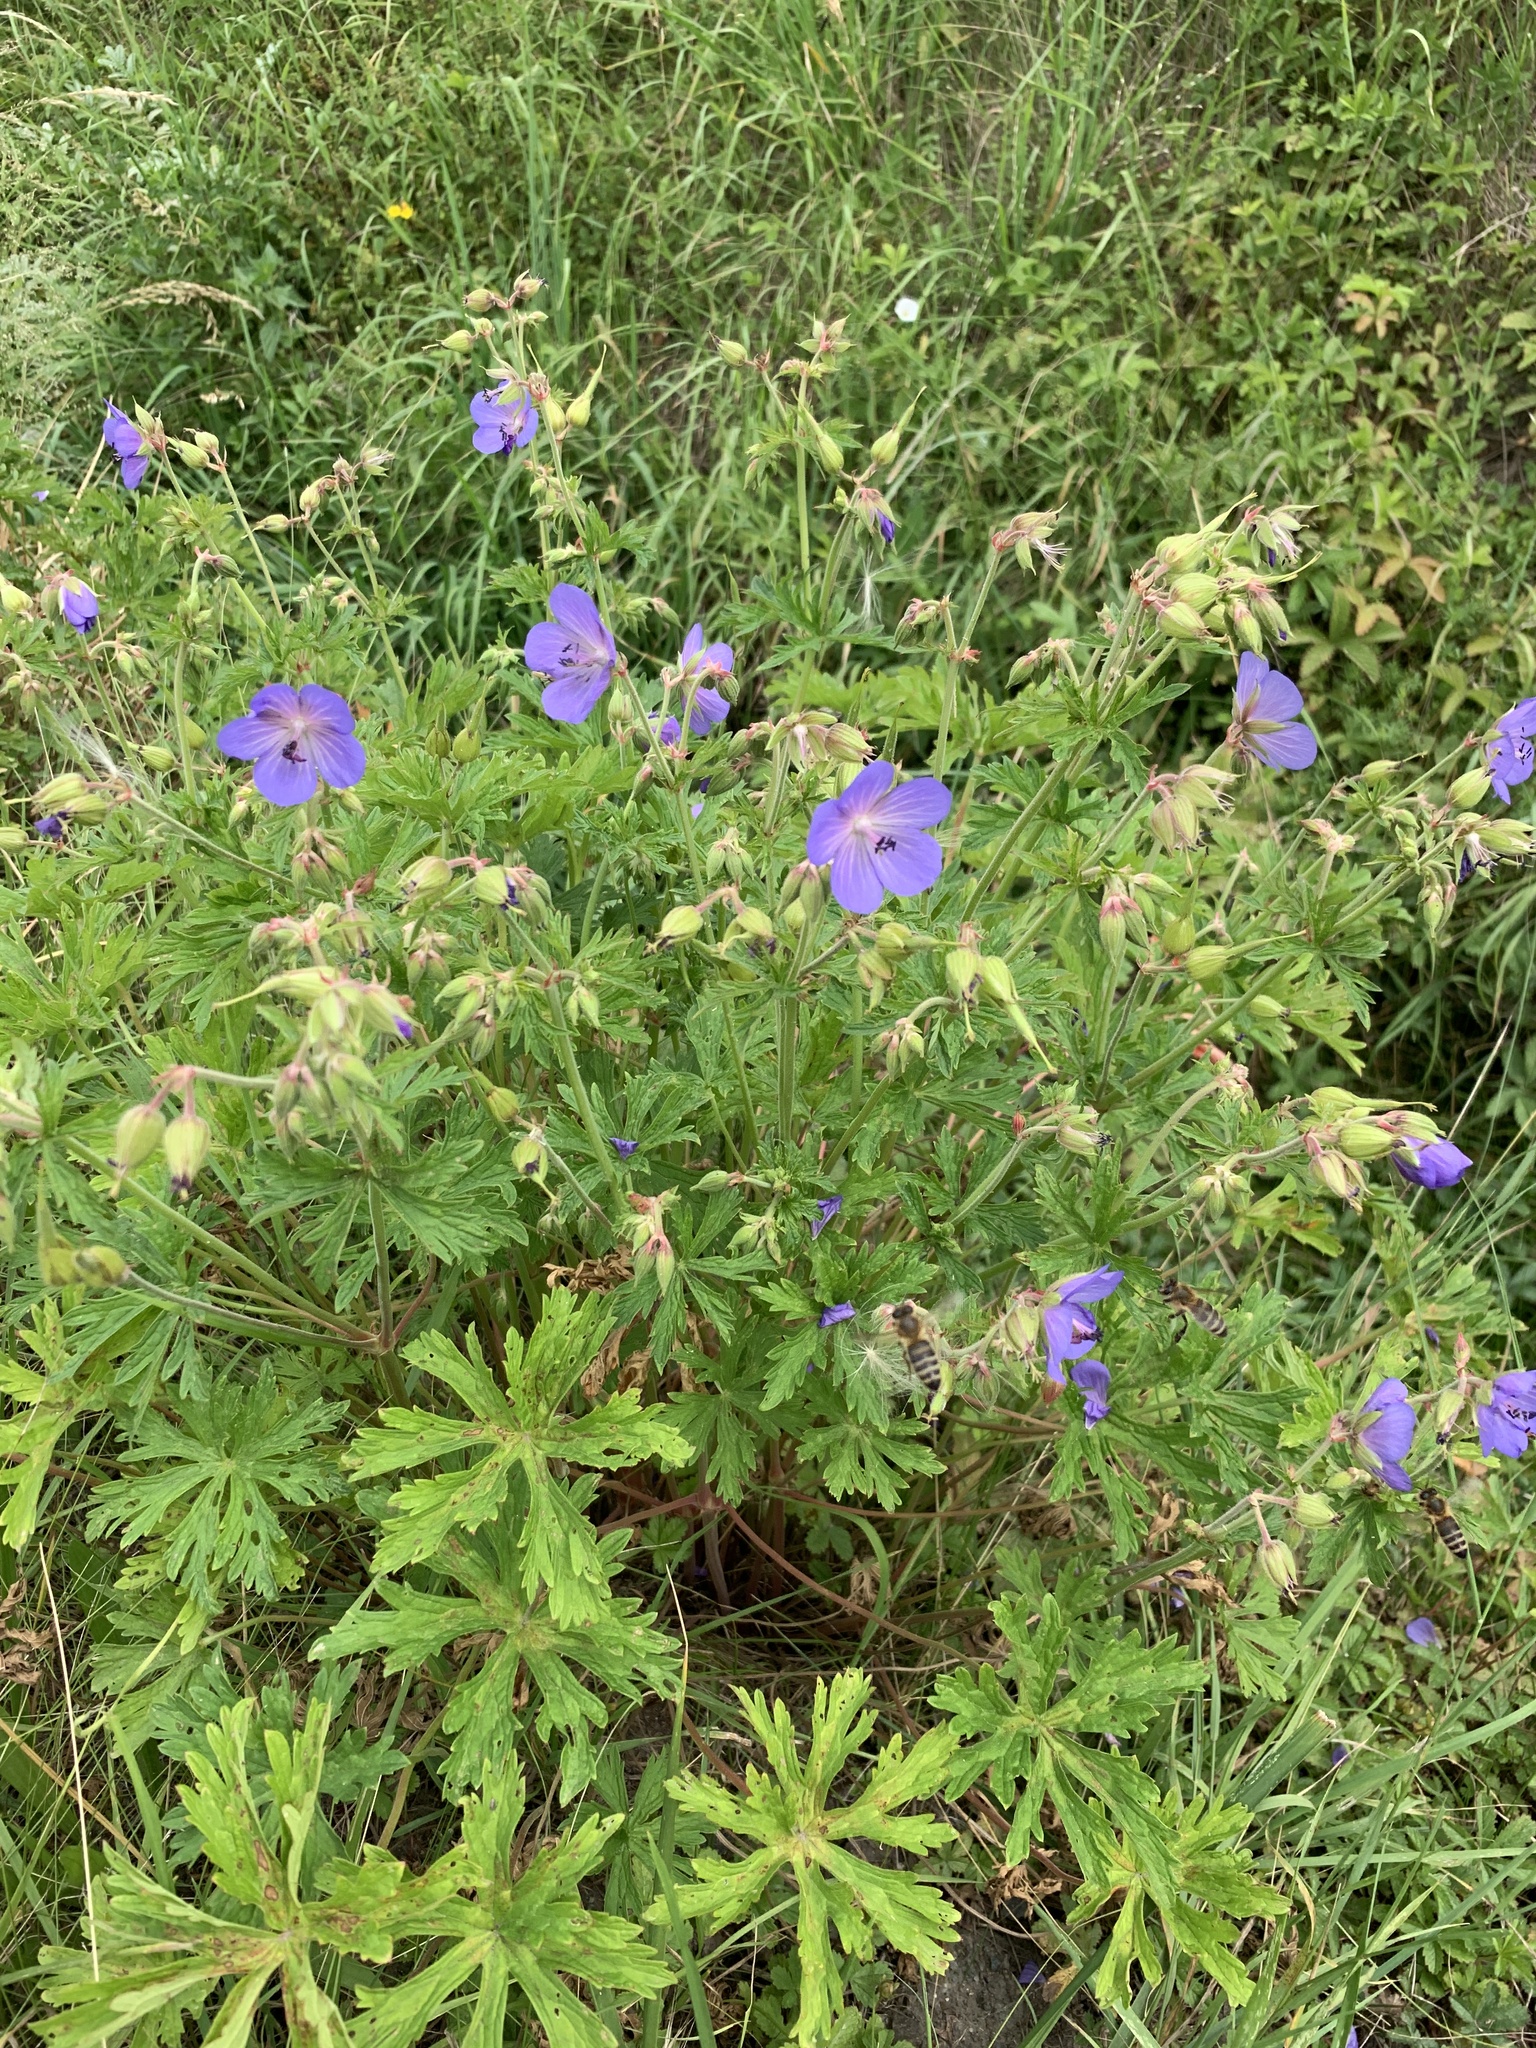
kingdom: Plantae
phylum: Tracheophyta
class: Magnoliopsida
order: Geraniales
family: Geraniaceae
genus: Geranium
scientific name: Geranium pratense
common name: Meadow crane's-bill
